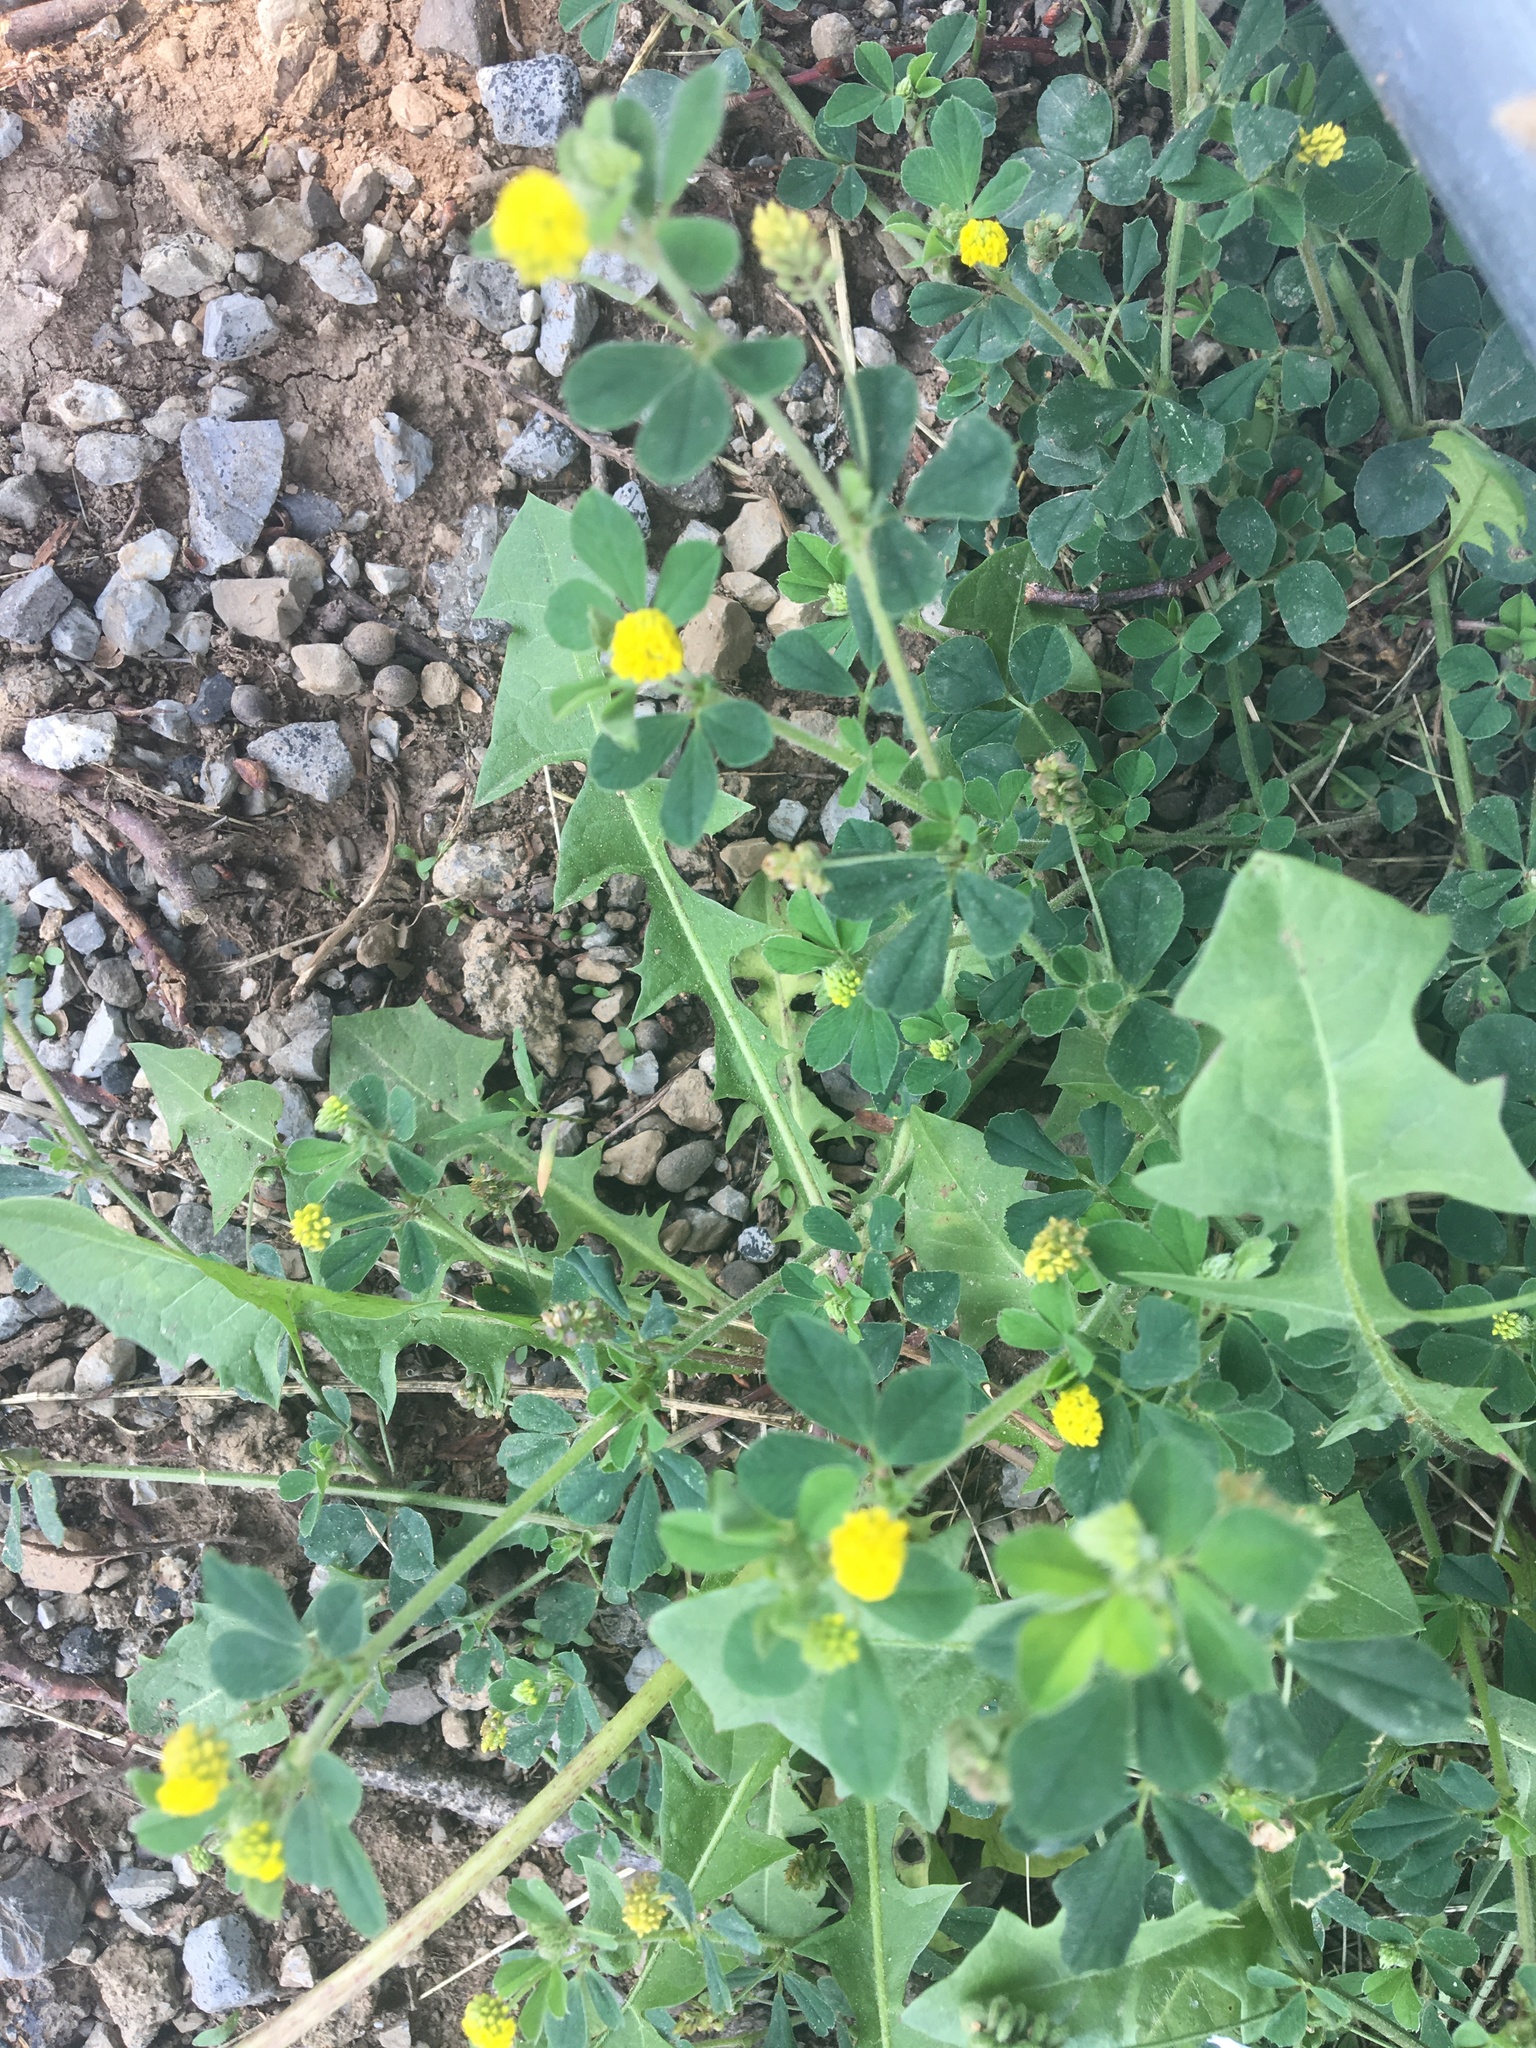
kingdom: Plantae
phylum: Tracheophyta
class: Magnoliopsida
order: Fabales
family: Fabaceae
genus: Medicago
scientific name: Medicago lupulina
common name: Black medick
